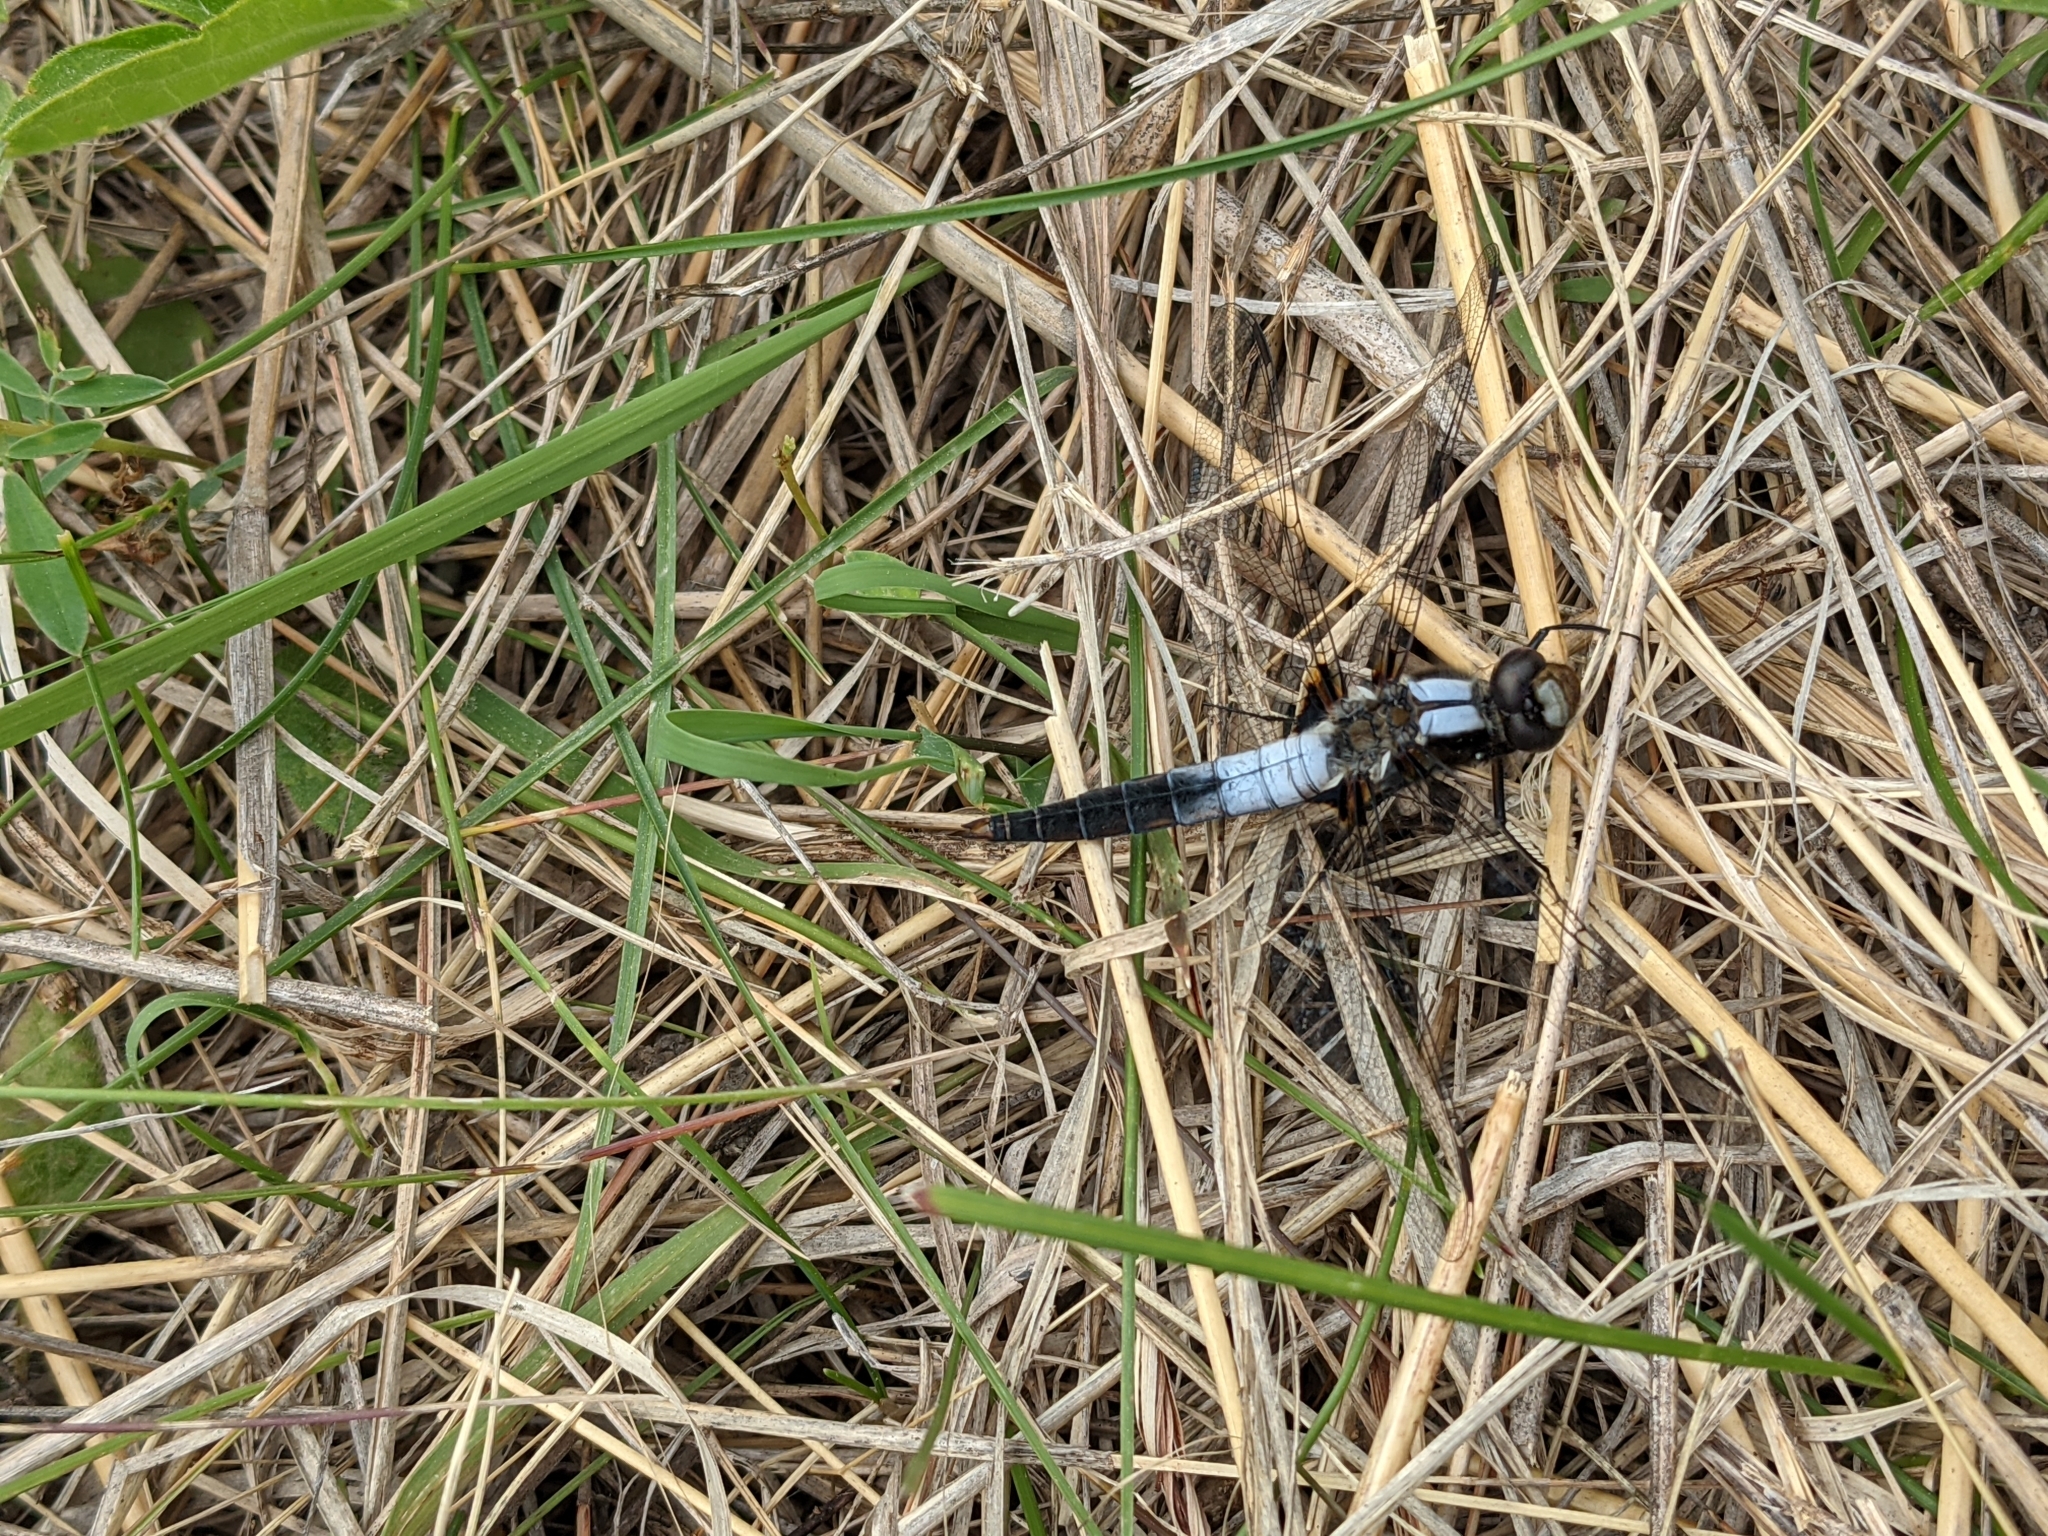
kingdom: Animalia
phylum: Arthropoda
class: Insecta
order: Odonata
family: Libellulidae
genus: Ladona
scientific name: Ladona julia
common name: Chalk-fronted corporal
